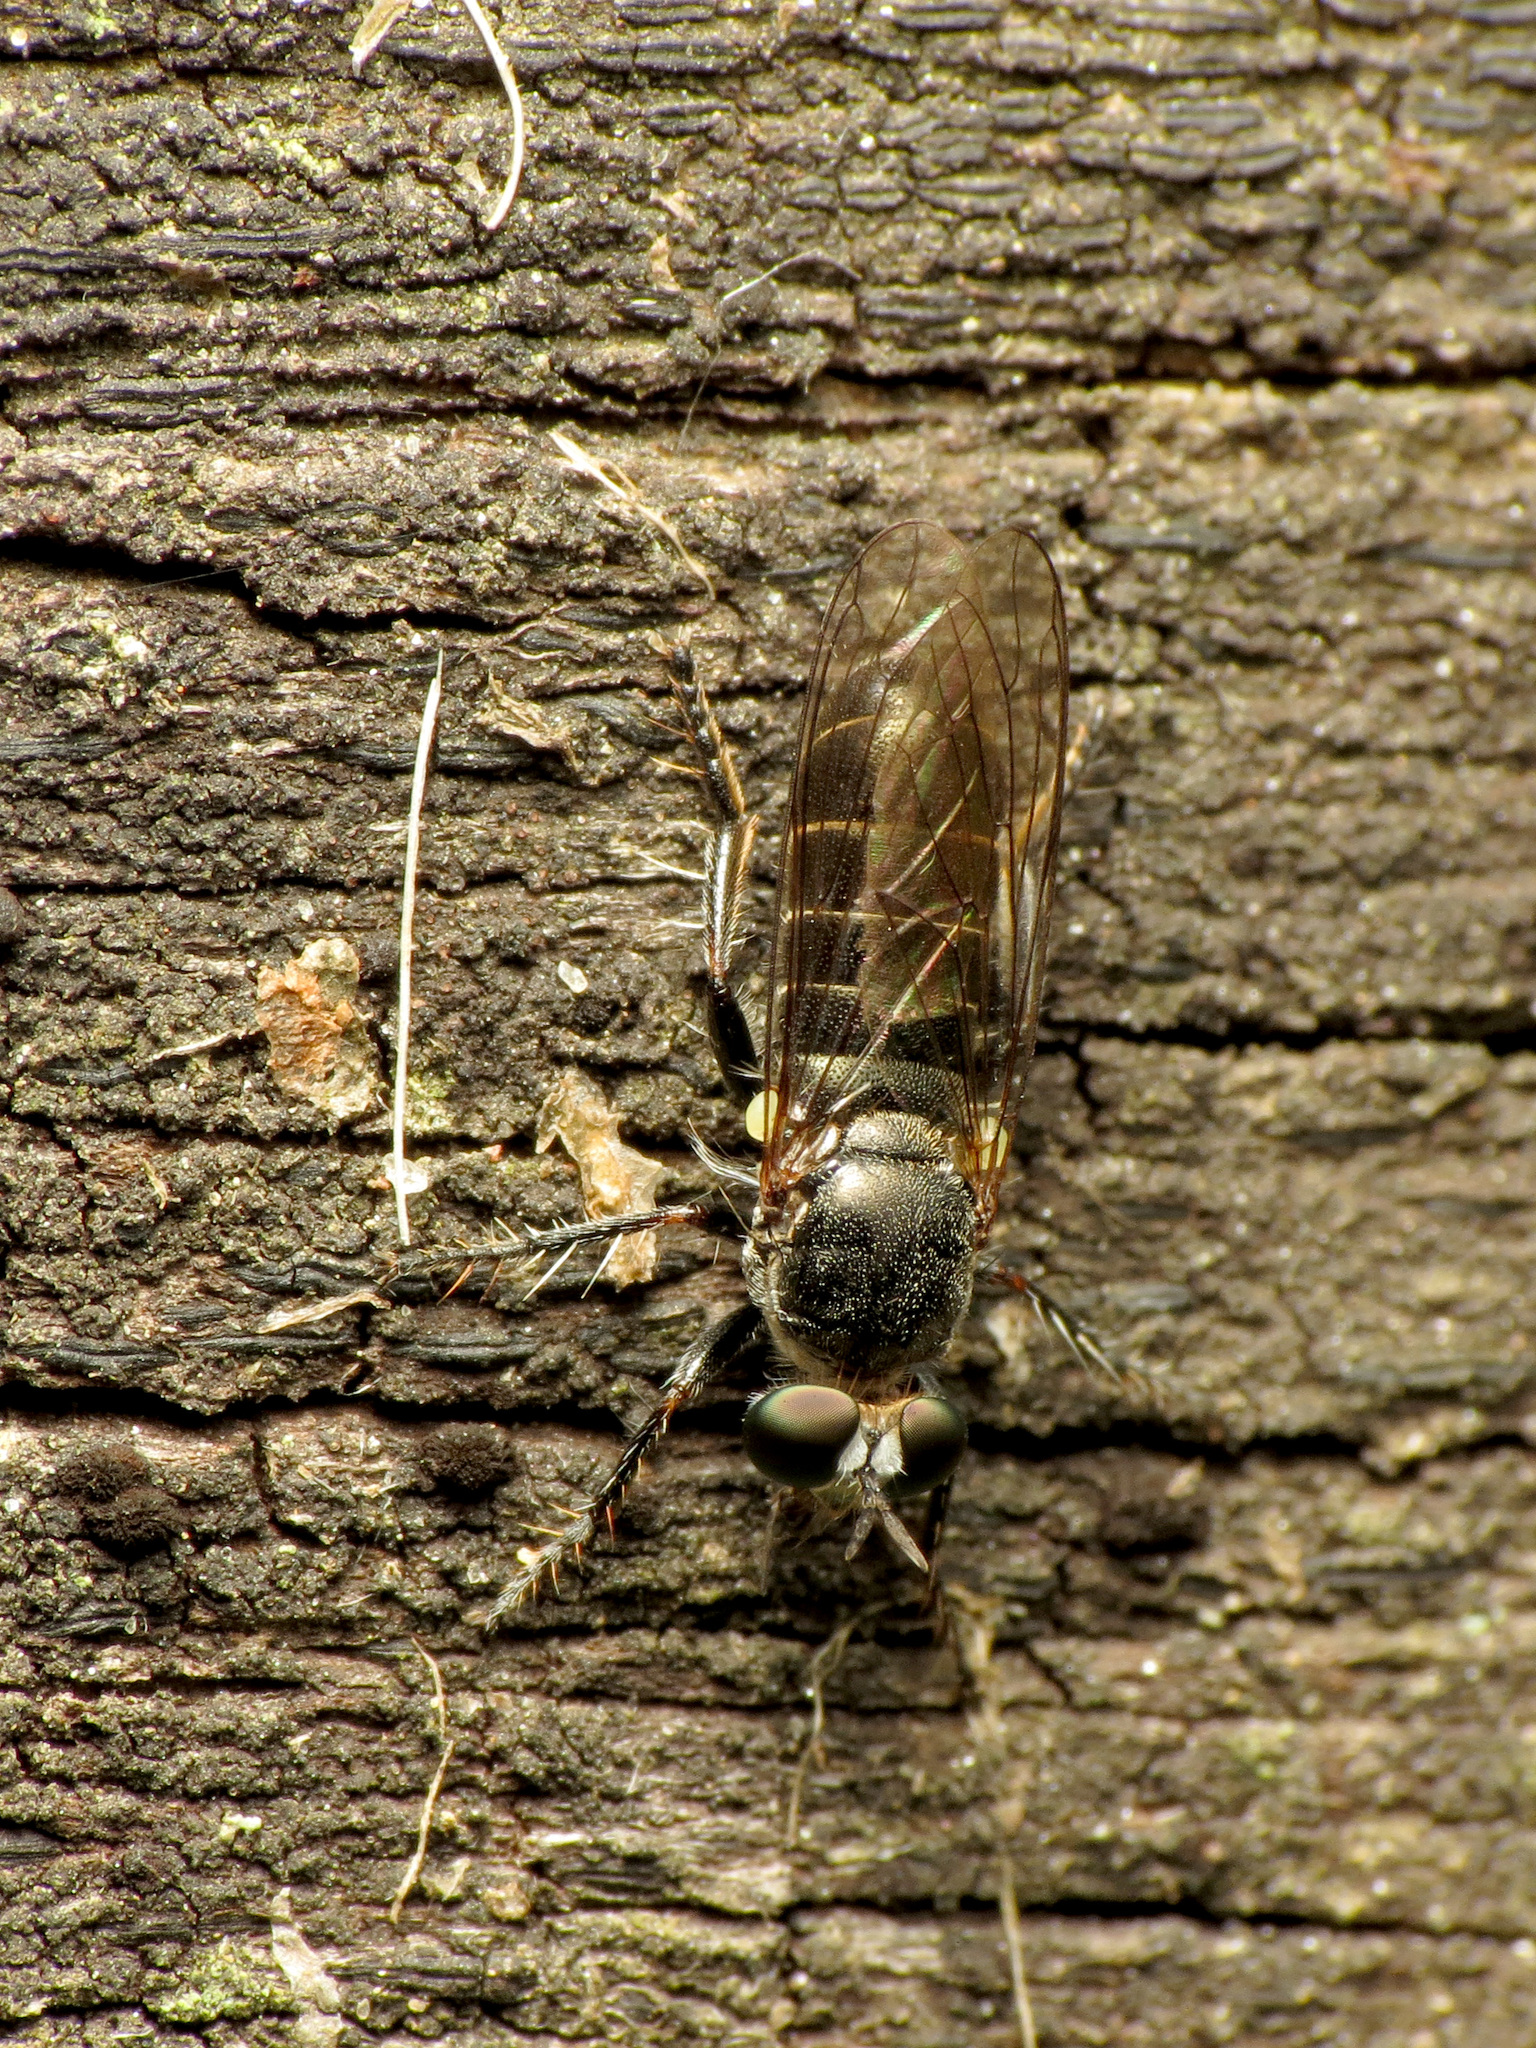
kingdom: Animalia
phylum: Arthropoda
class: Insecta
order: Diptera
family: Asilidae
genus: Atomosia
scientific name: Atomosia puella
